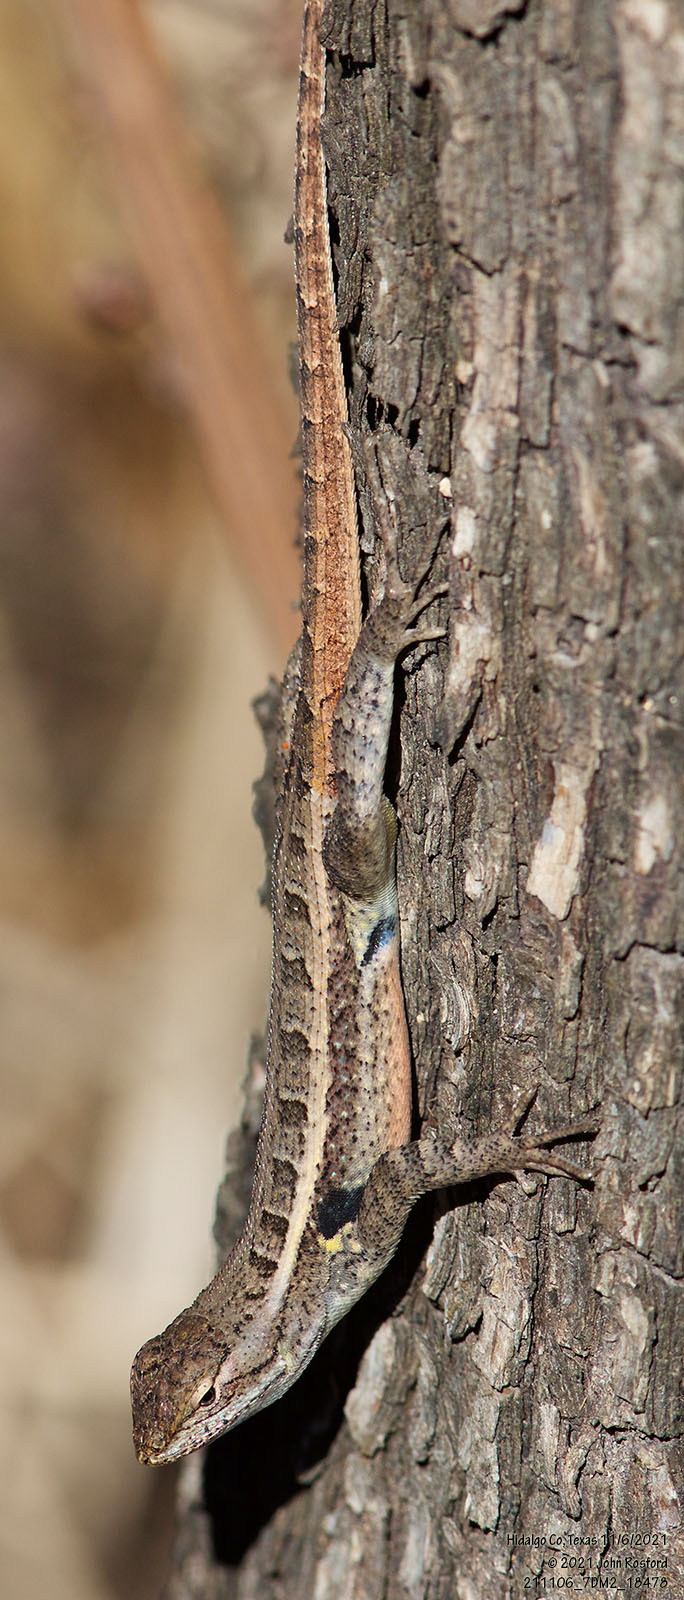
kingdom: Animalia
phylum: Chordata
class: Squamata
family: Phrynosomatidae
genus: Sceloporus
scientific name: Sceloporus variabilis
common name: Rosebelly lizard
